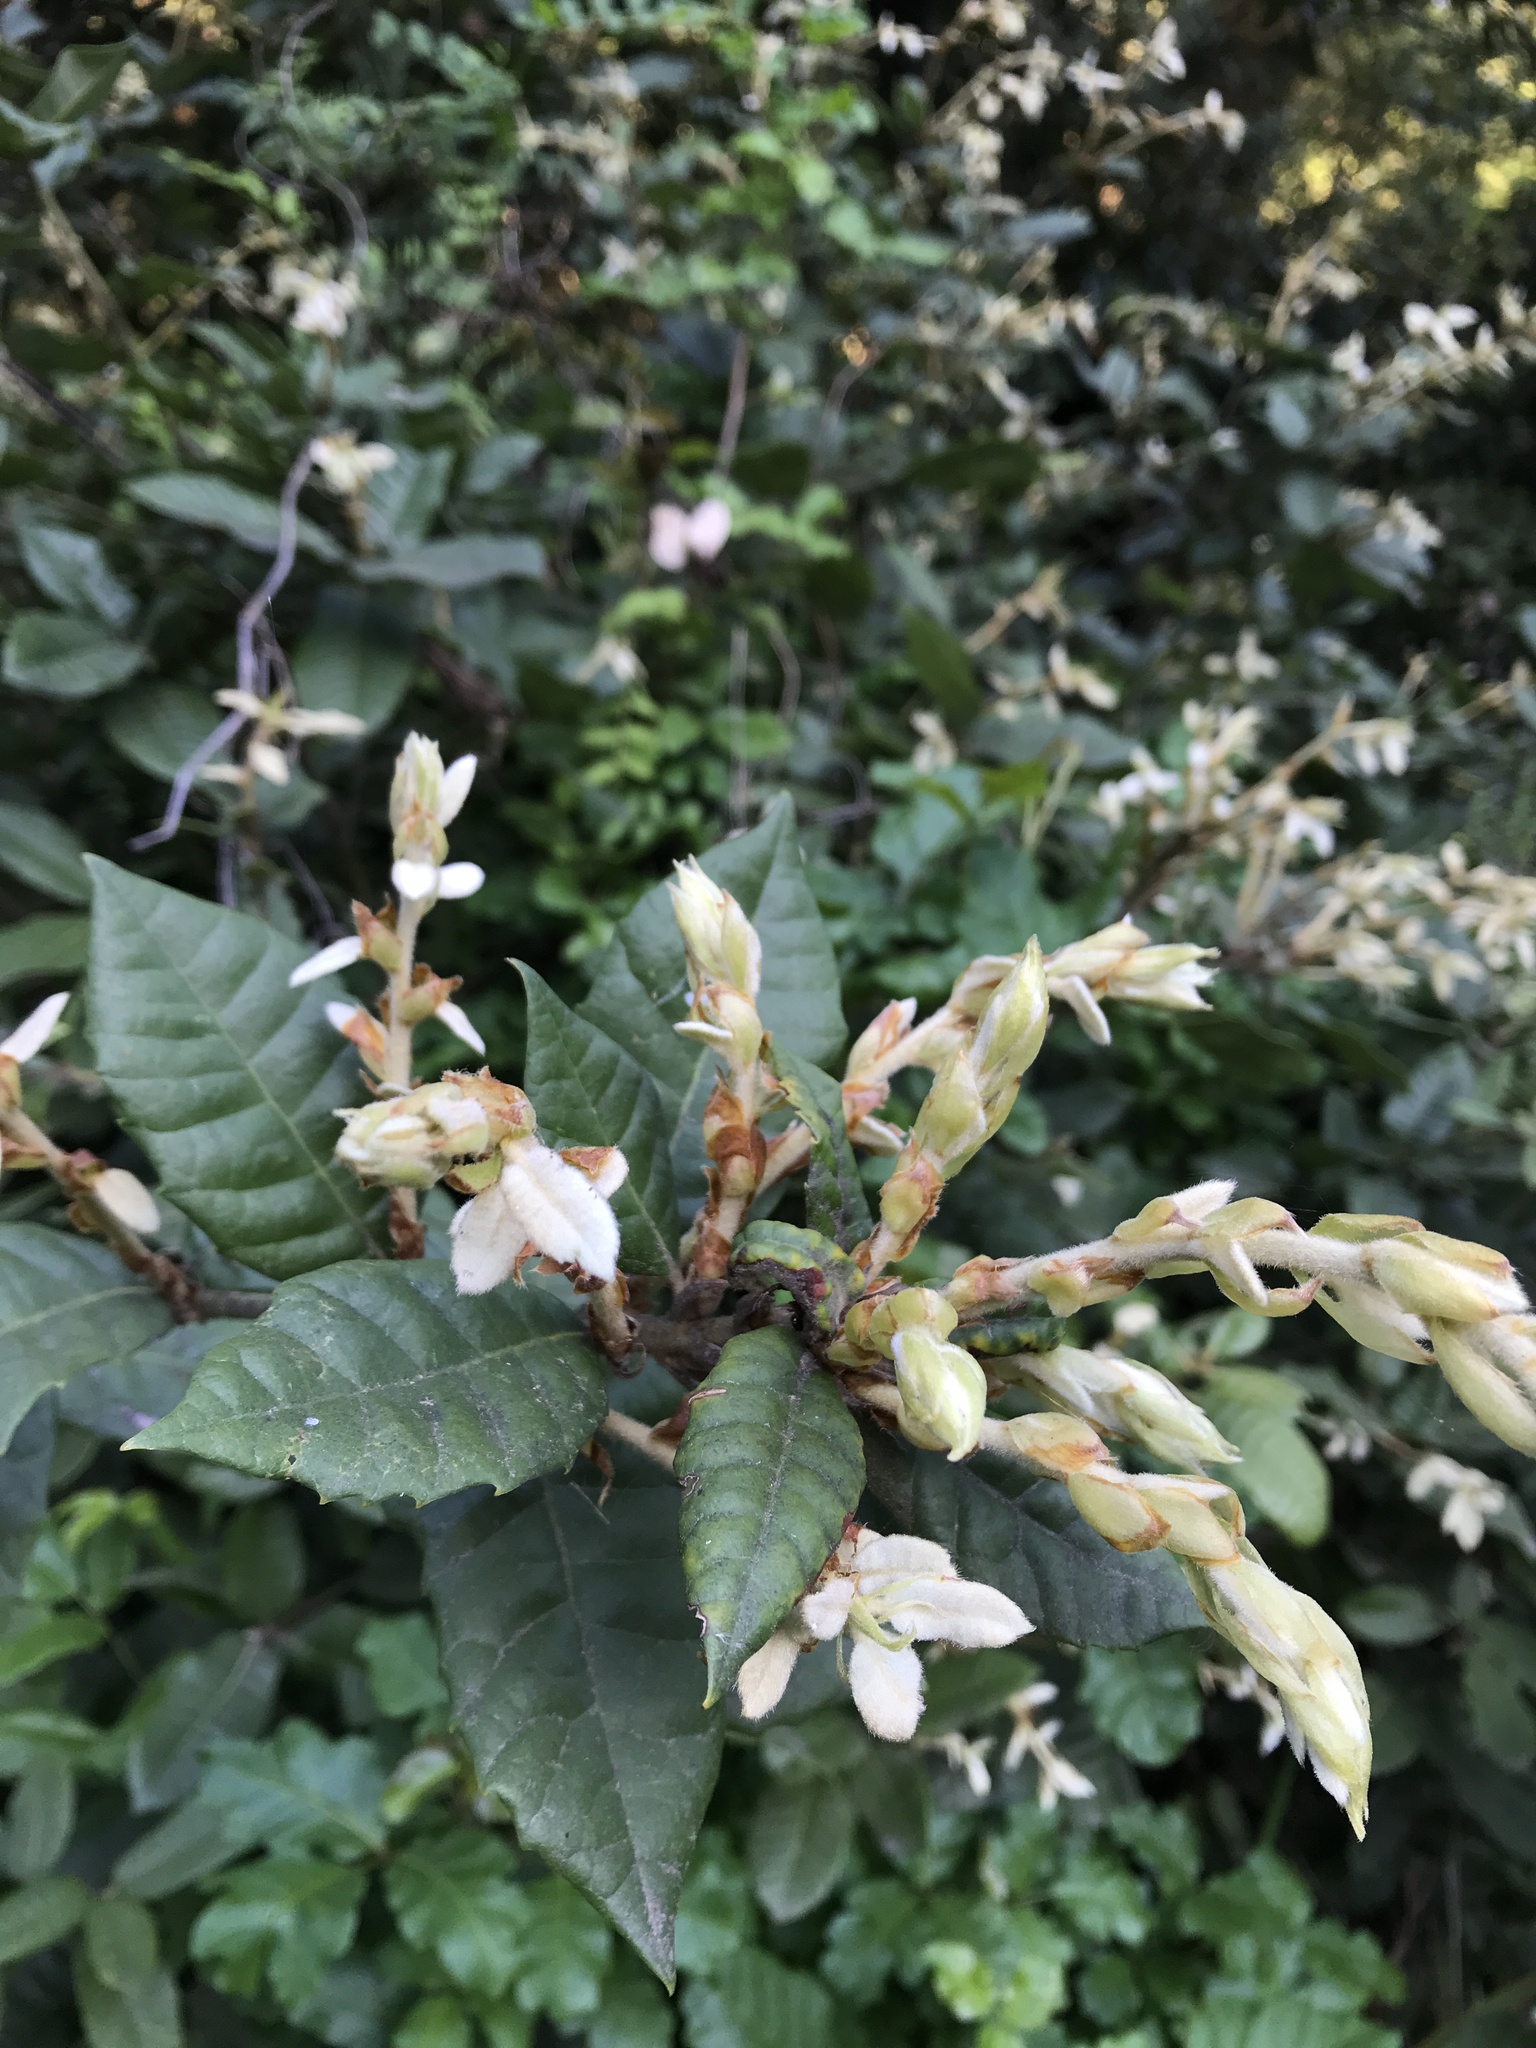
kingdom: Plantae
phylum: Tracheophyta
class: Magnoliopsida
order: Fagales
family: Fagaceae
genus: Notholithocarpus
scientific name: Notholithocarpus densiflorus
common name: Tan bark oak
